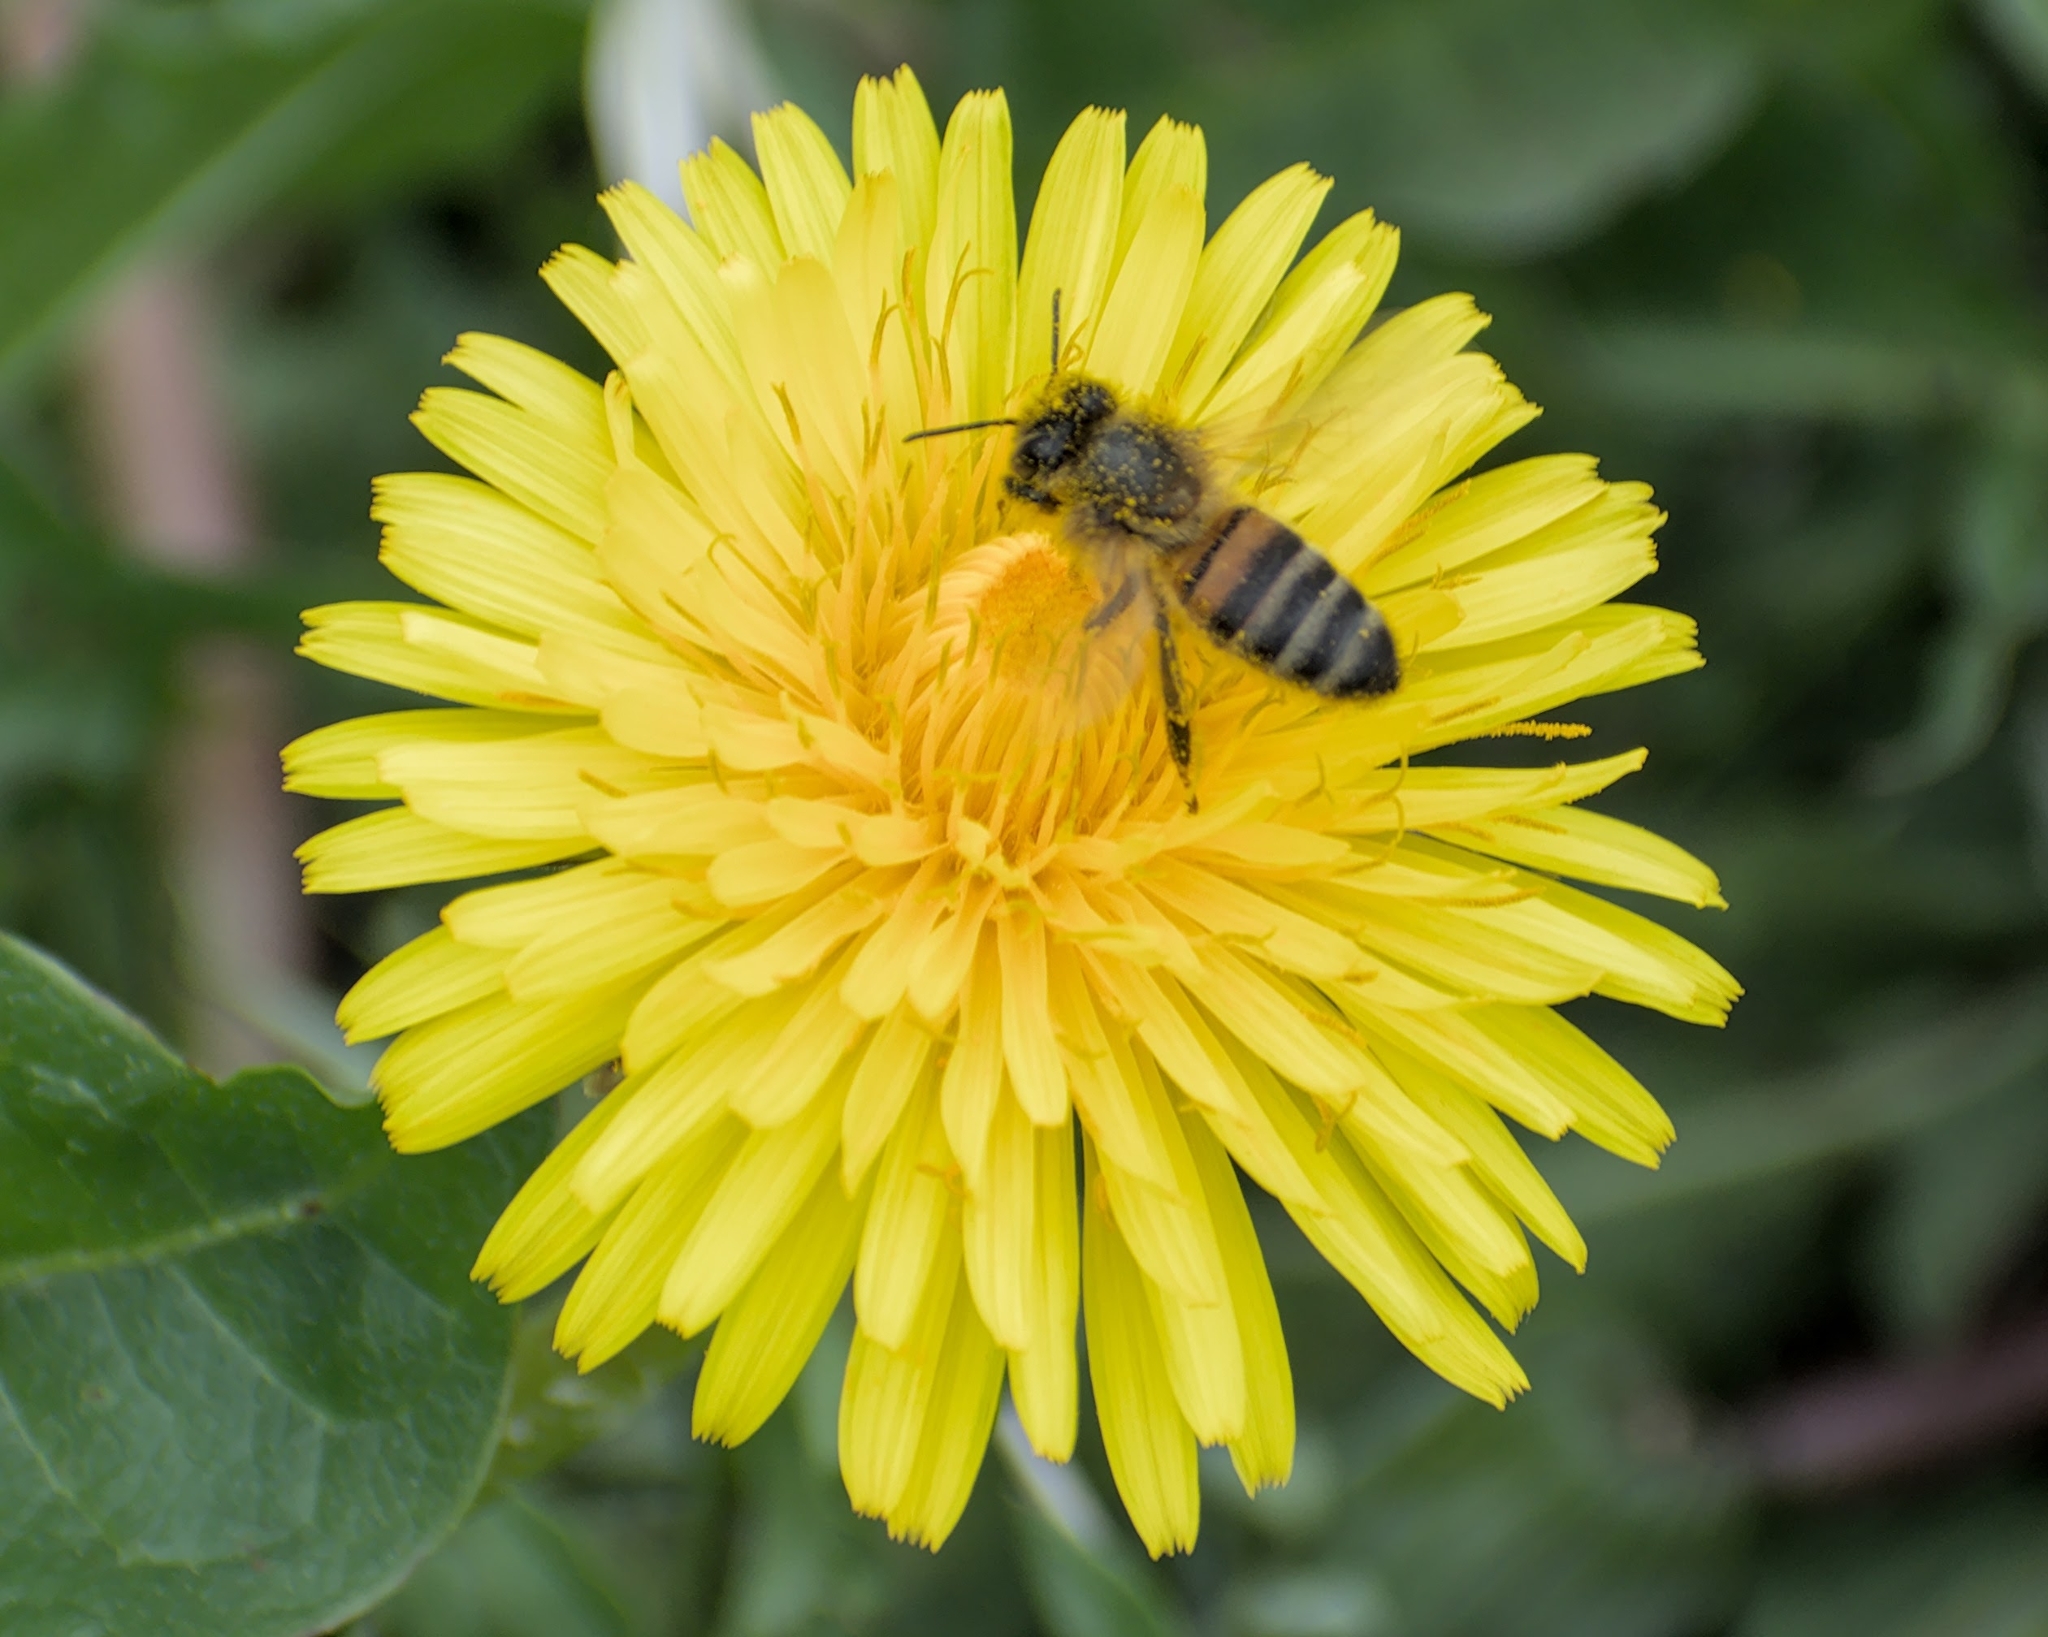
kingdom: Animalia
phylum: Arthropoda
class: Insecta
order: Hymenoptera
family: Apidae
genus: Apis
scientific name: Apis mellifera
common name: Honey bee
